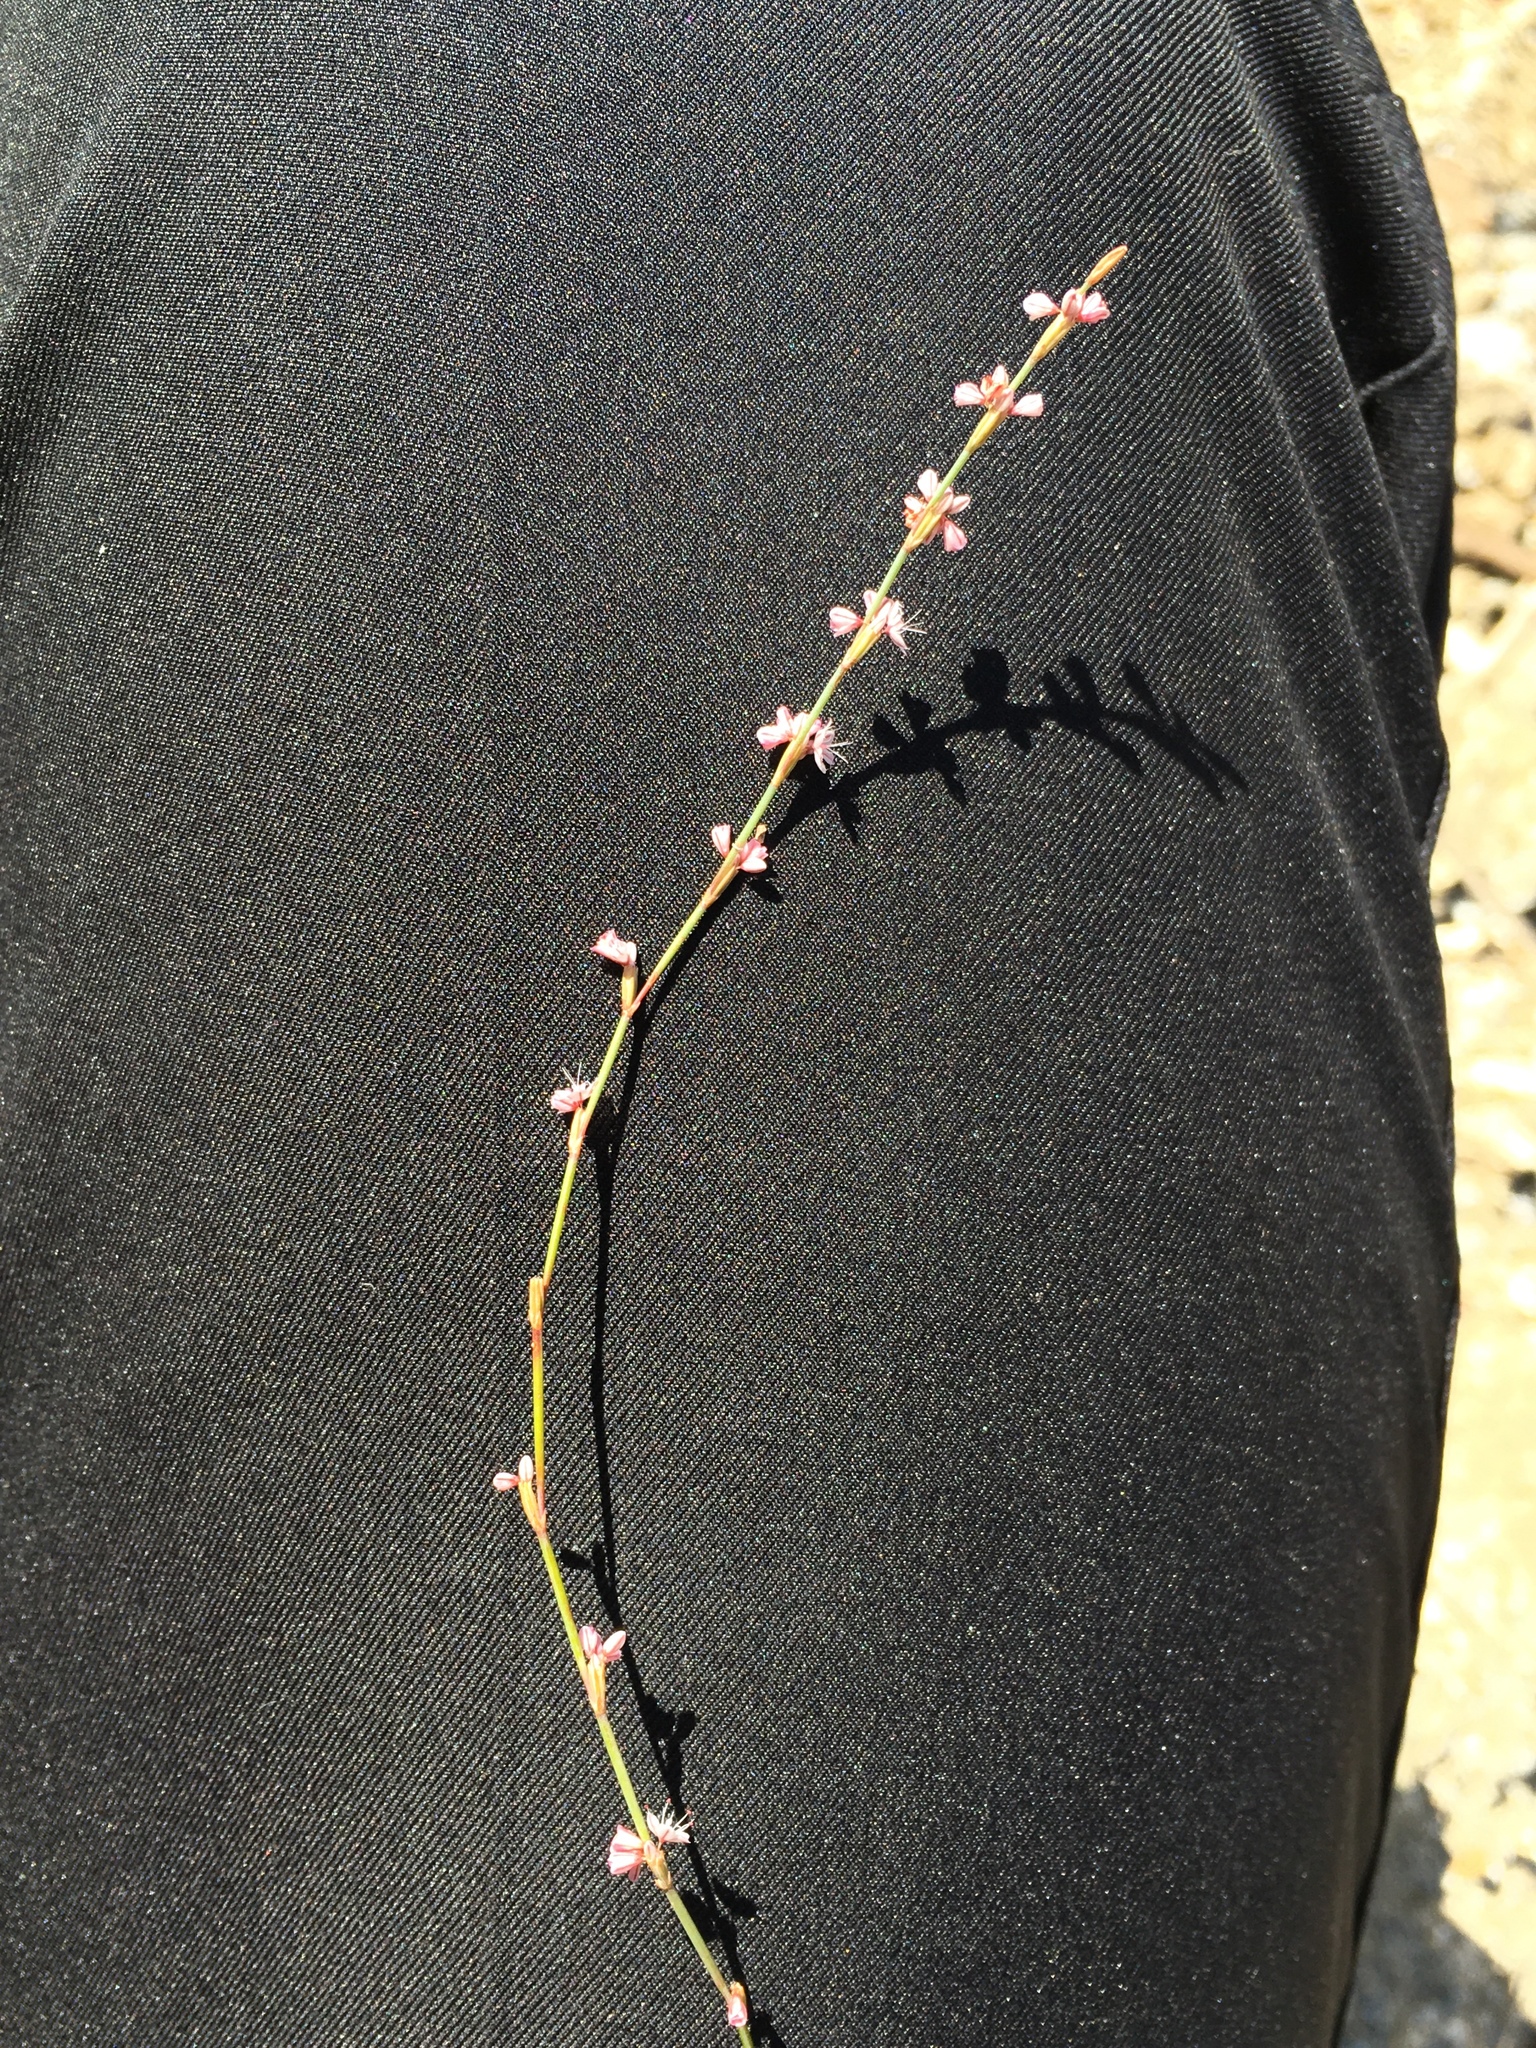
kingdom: Plantae
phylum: Tracheophyta
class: Magnoliopsida
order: Caryophyllales
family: Polygonaceae
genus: Eriogonum
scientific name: Eriogonum vimineum
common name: Wicker buckwheat
